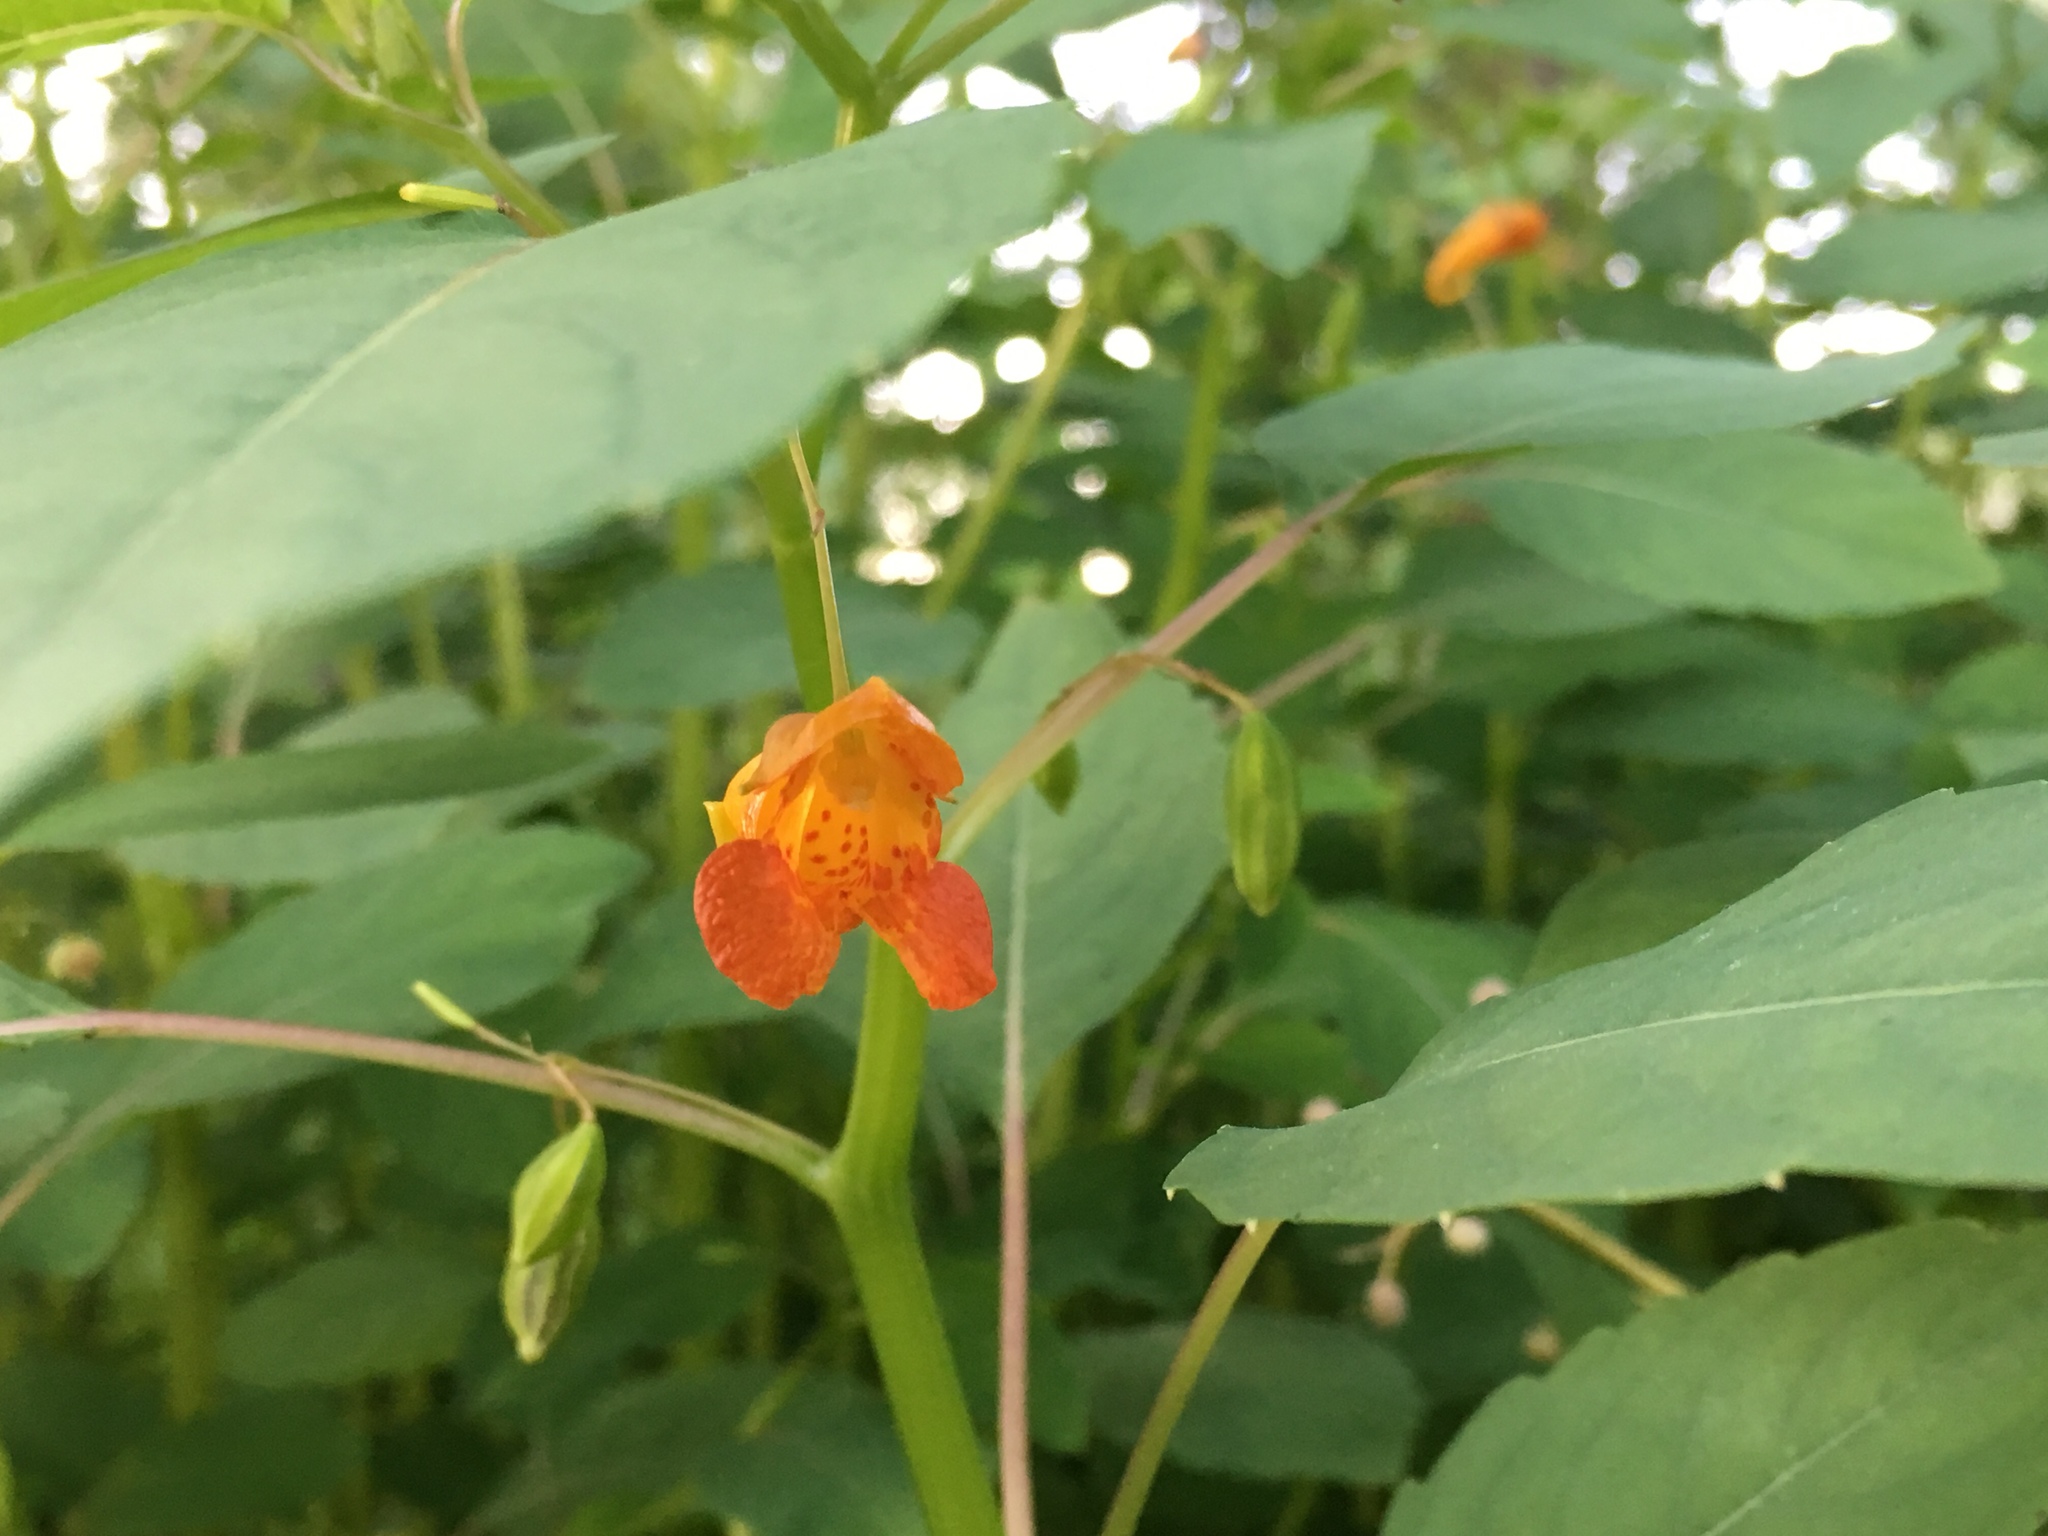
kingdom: Plantae
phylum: Tracheophyta
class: Magnoliopsida
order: Ericales
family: Balsaminaceae
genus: Impatiens
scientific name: Impatiens capensis
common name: Orange balsam
